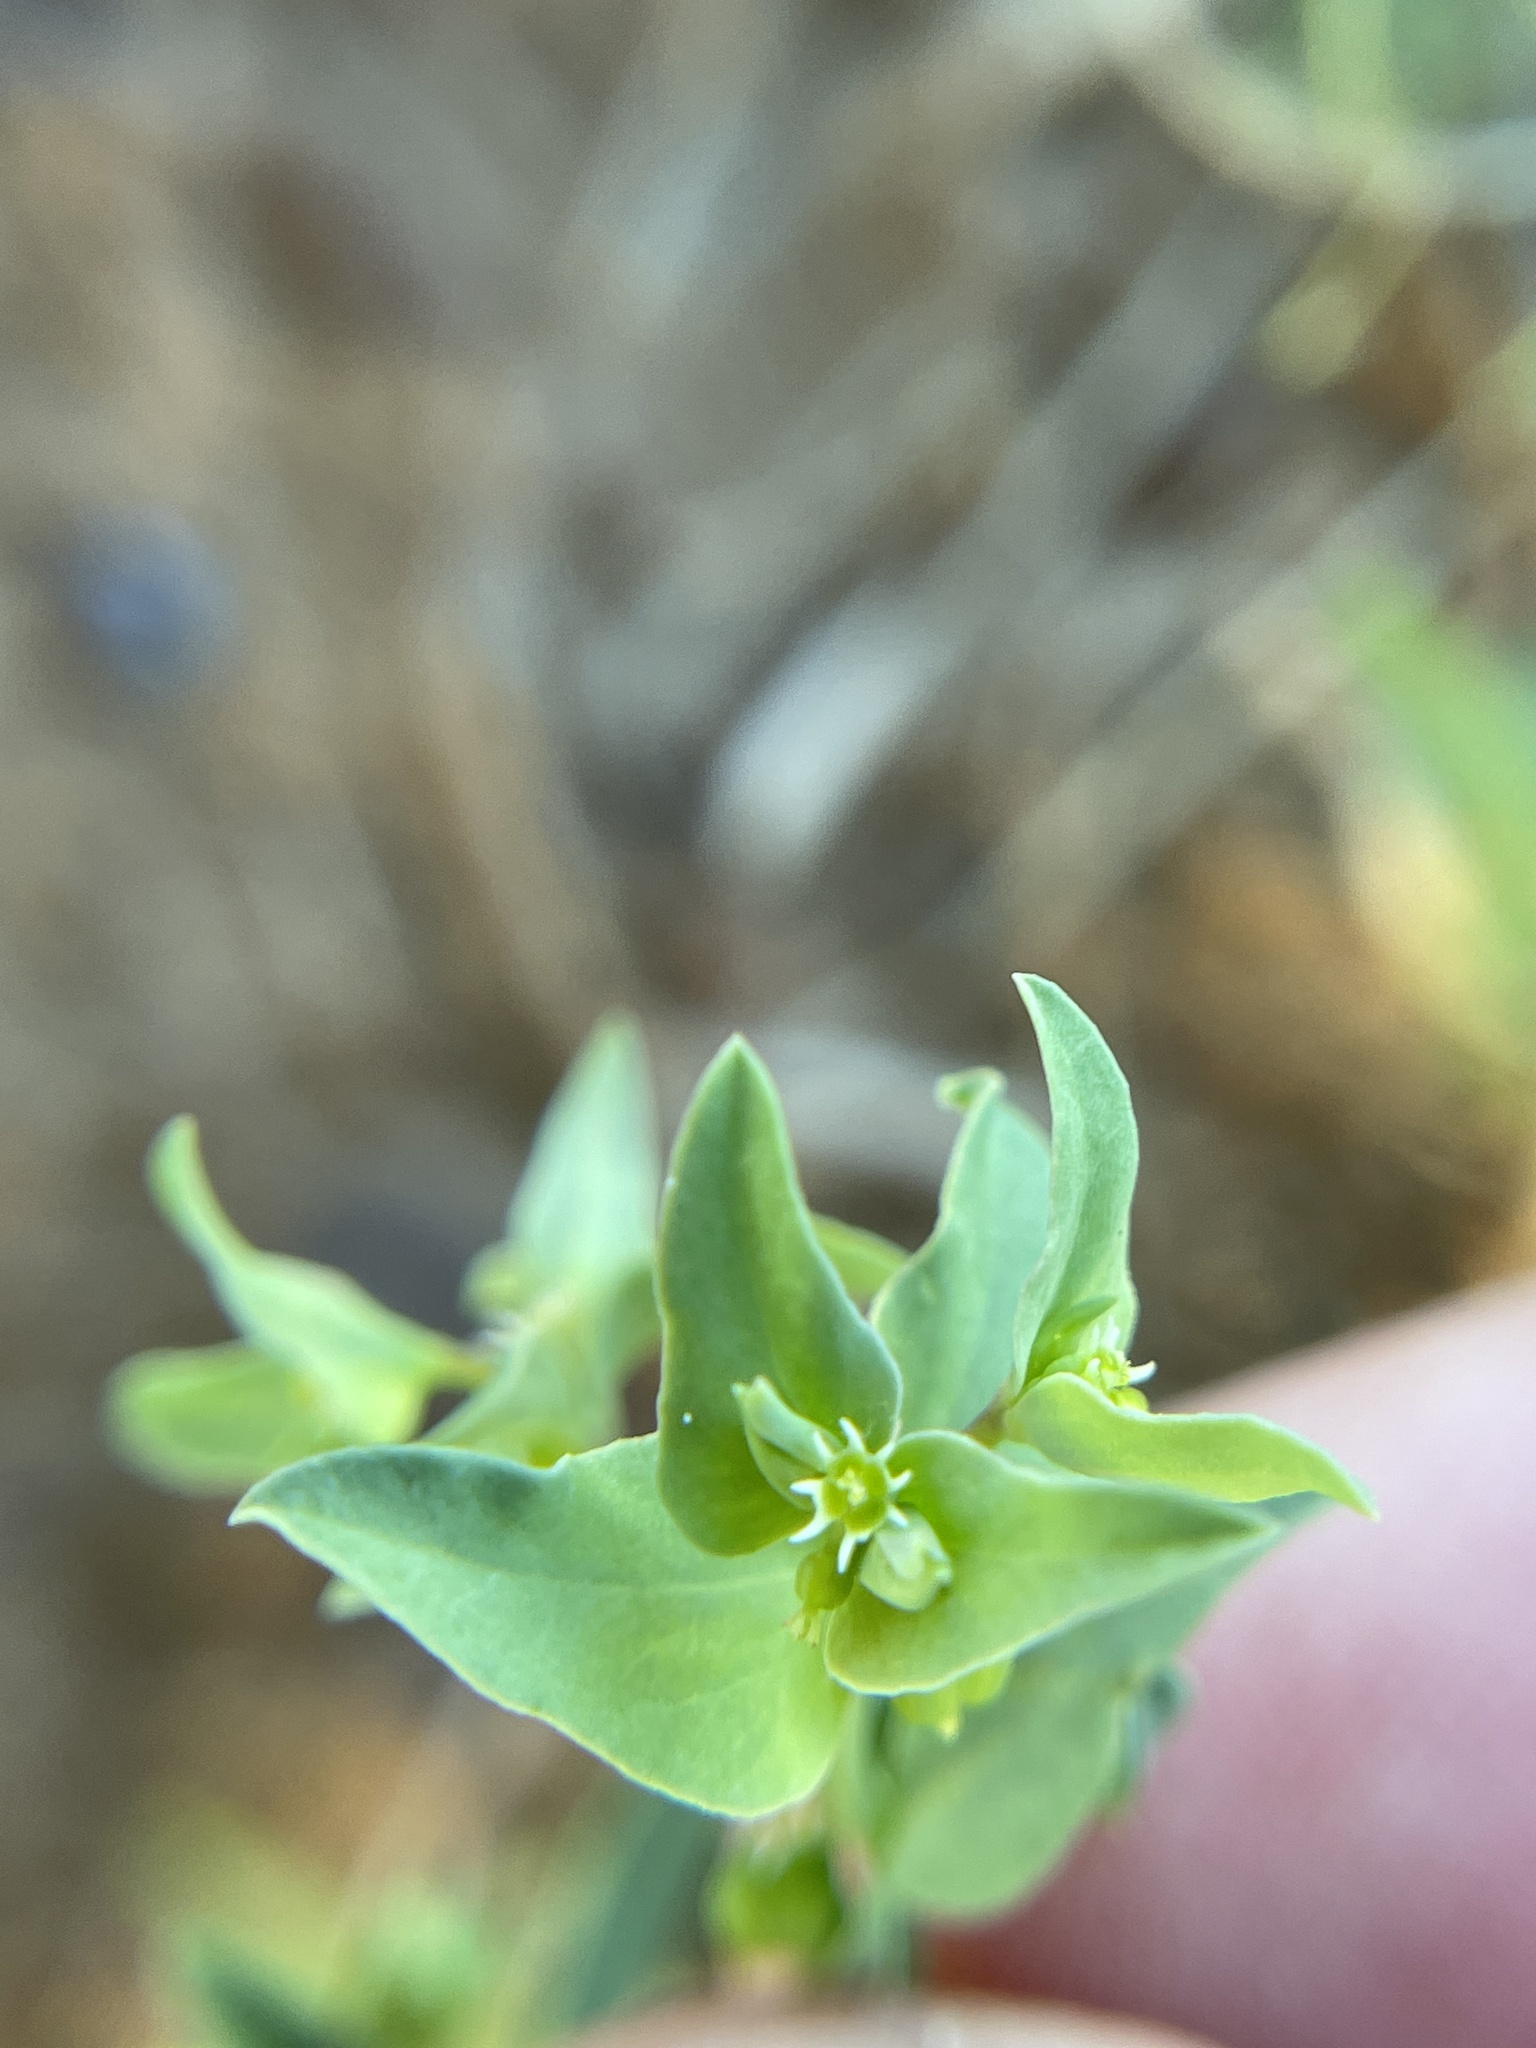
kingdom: Plantae
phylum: Tracheophyta
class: Magnoliopsida
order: Malpighiales
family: Euphorbiaceae
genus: Euphorbia
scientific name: Euphorbia peplidion
